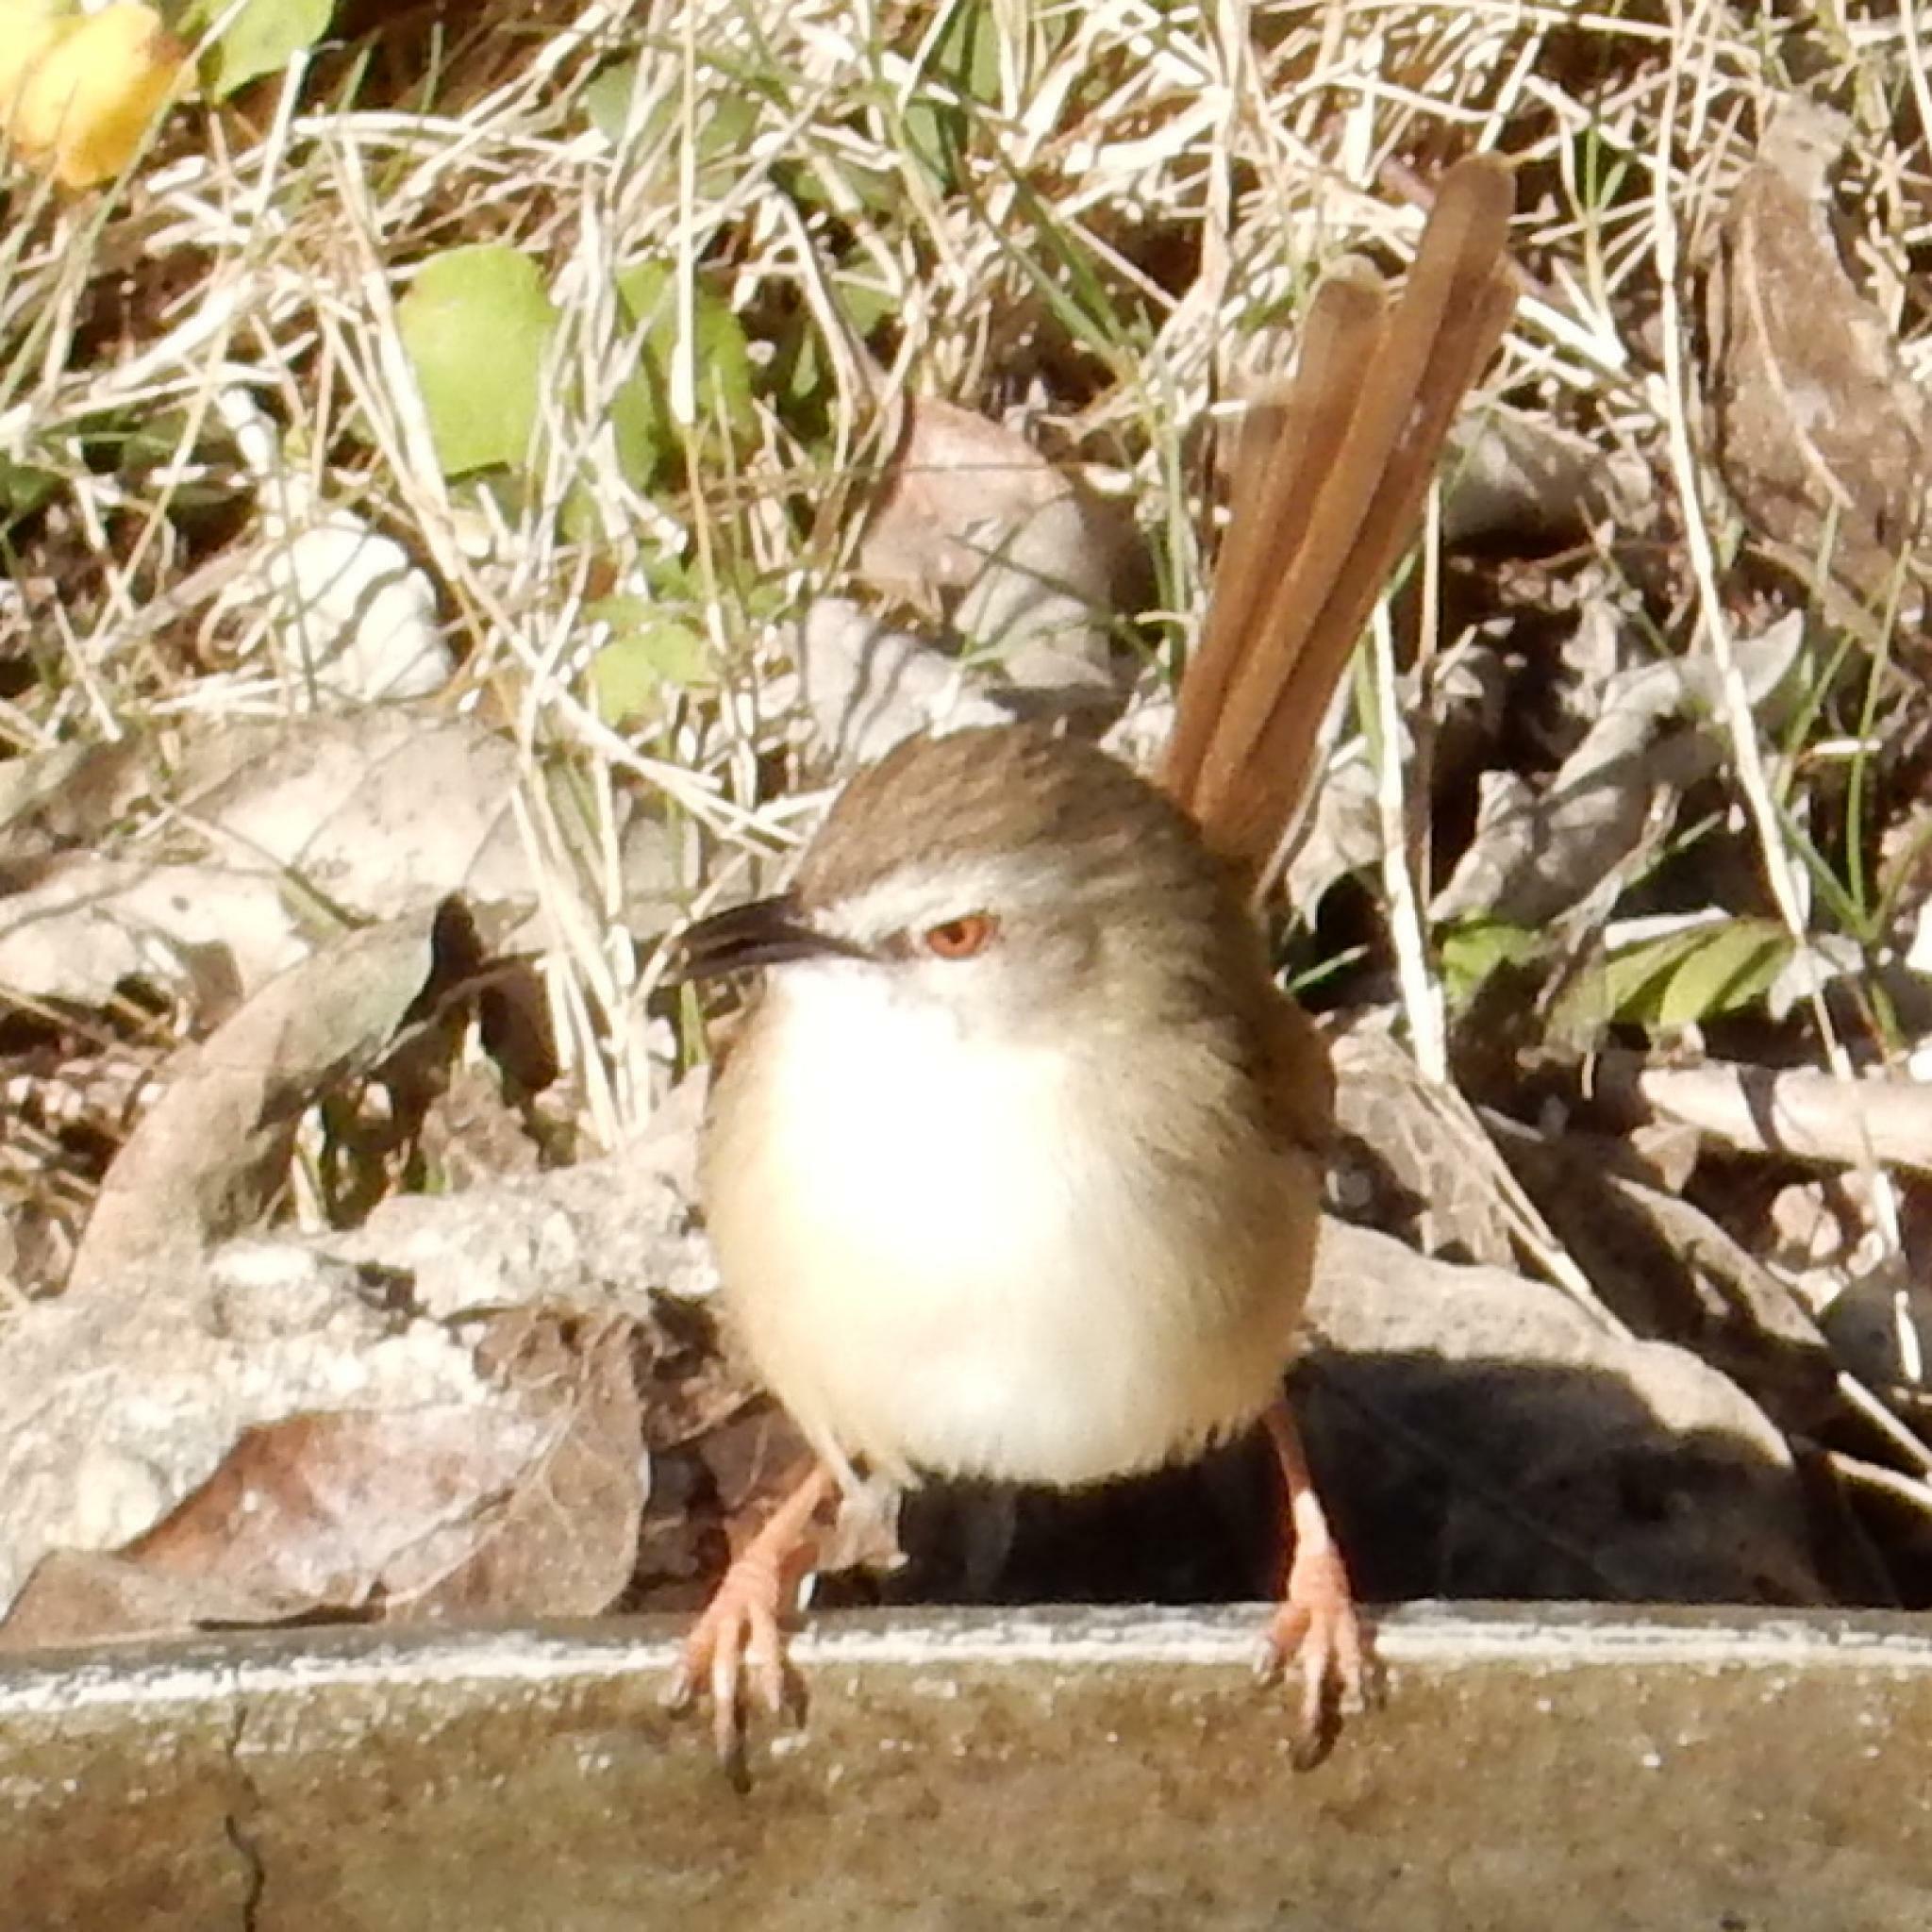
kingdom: Animalia
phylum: Chordata
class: Aves
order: Passeriformes
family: Cisticolidae
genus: Prinia
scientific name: Prinia subflava
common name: Tawny-flanked prinia
